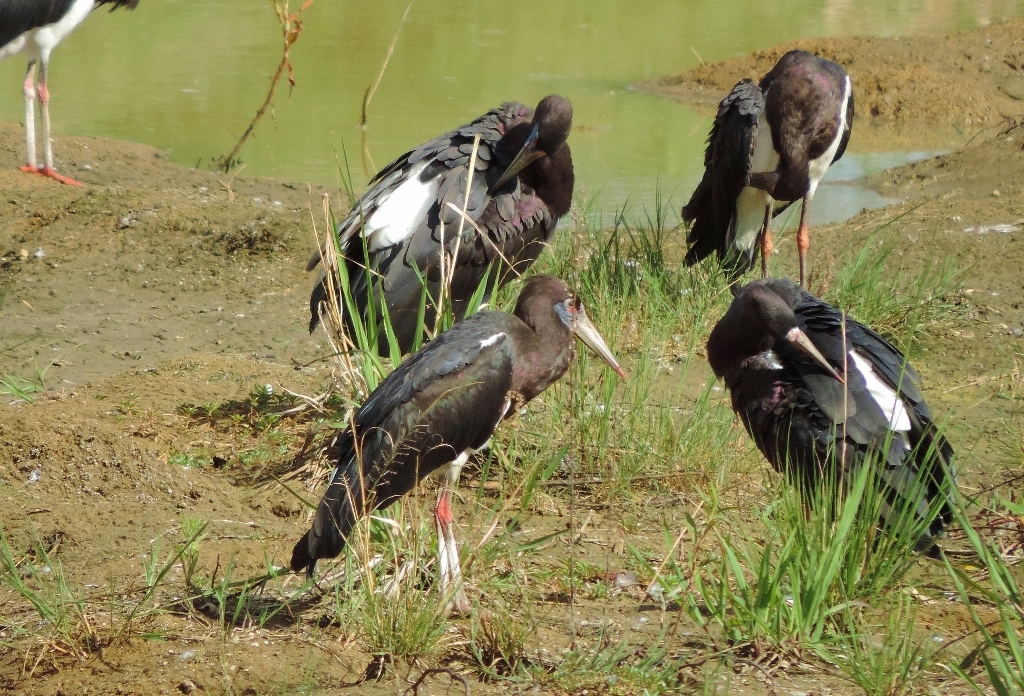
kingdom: Animalia
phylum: Chordata
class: Aves
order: Ciconiiformes
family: Ciconiidae
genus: Ciconia
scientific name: Ciconia abdimii
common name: Abdim's stork
